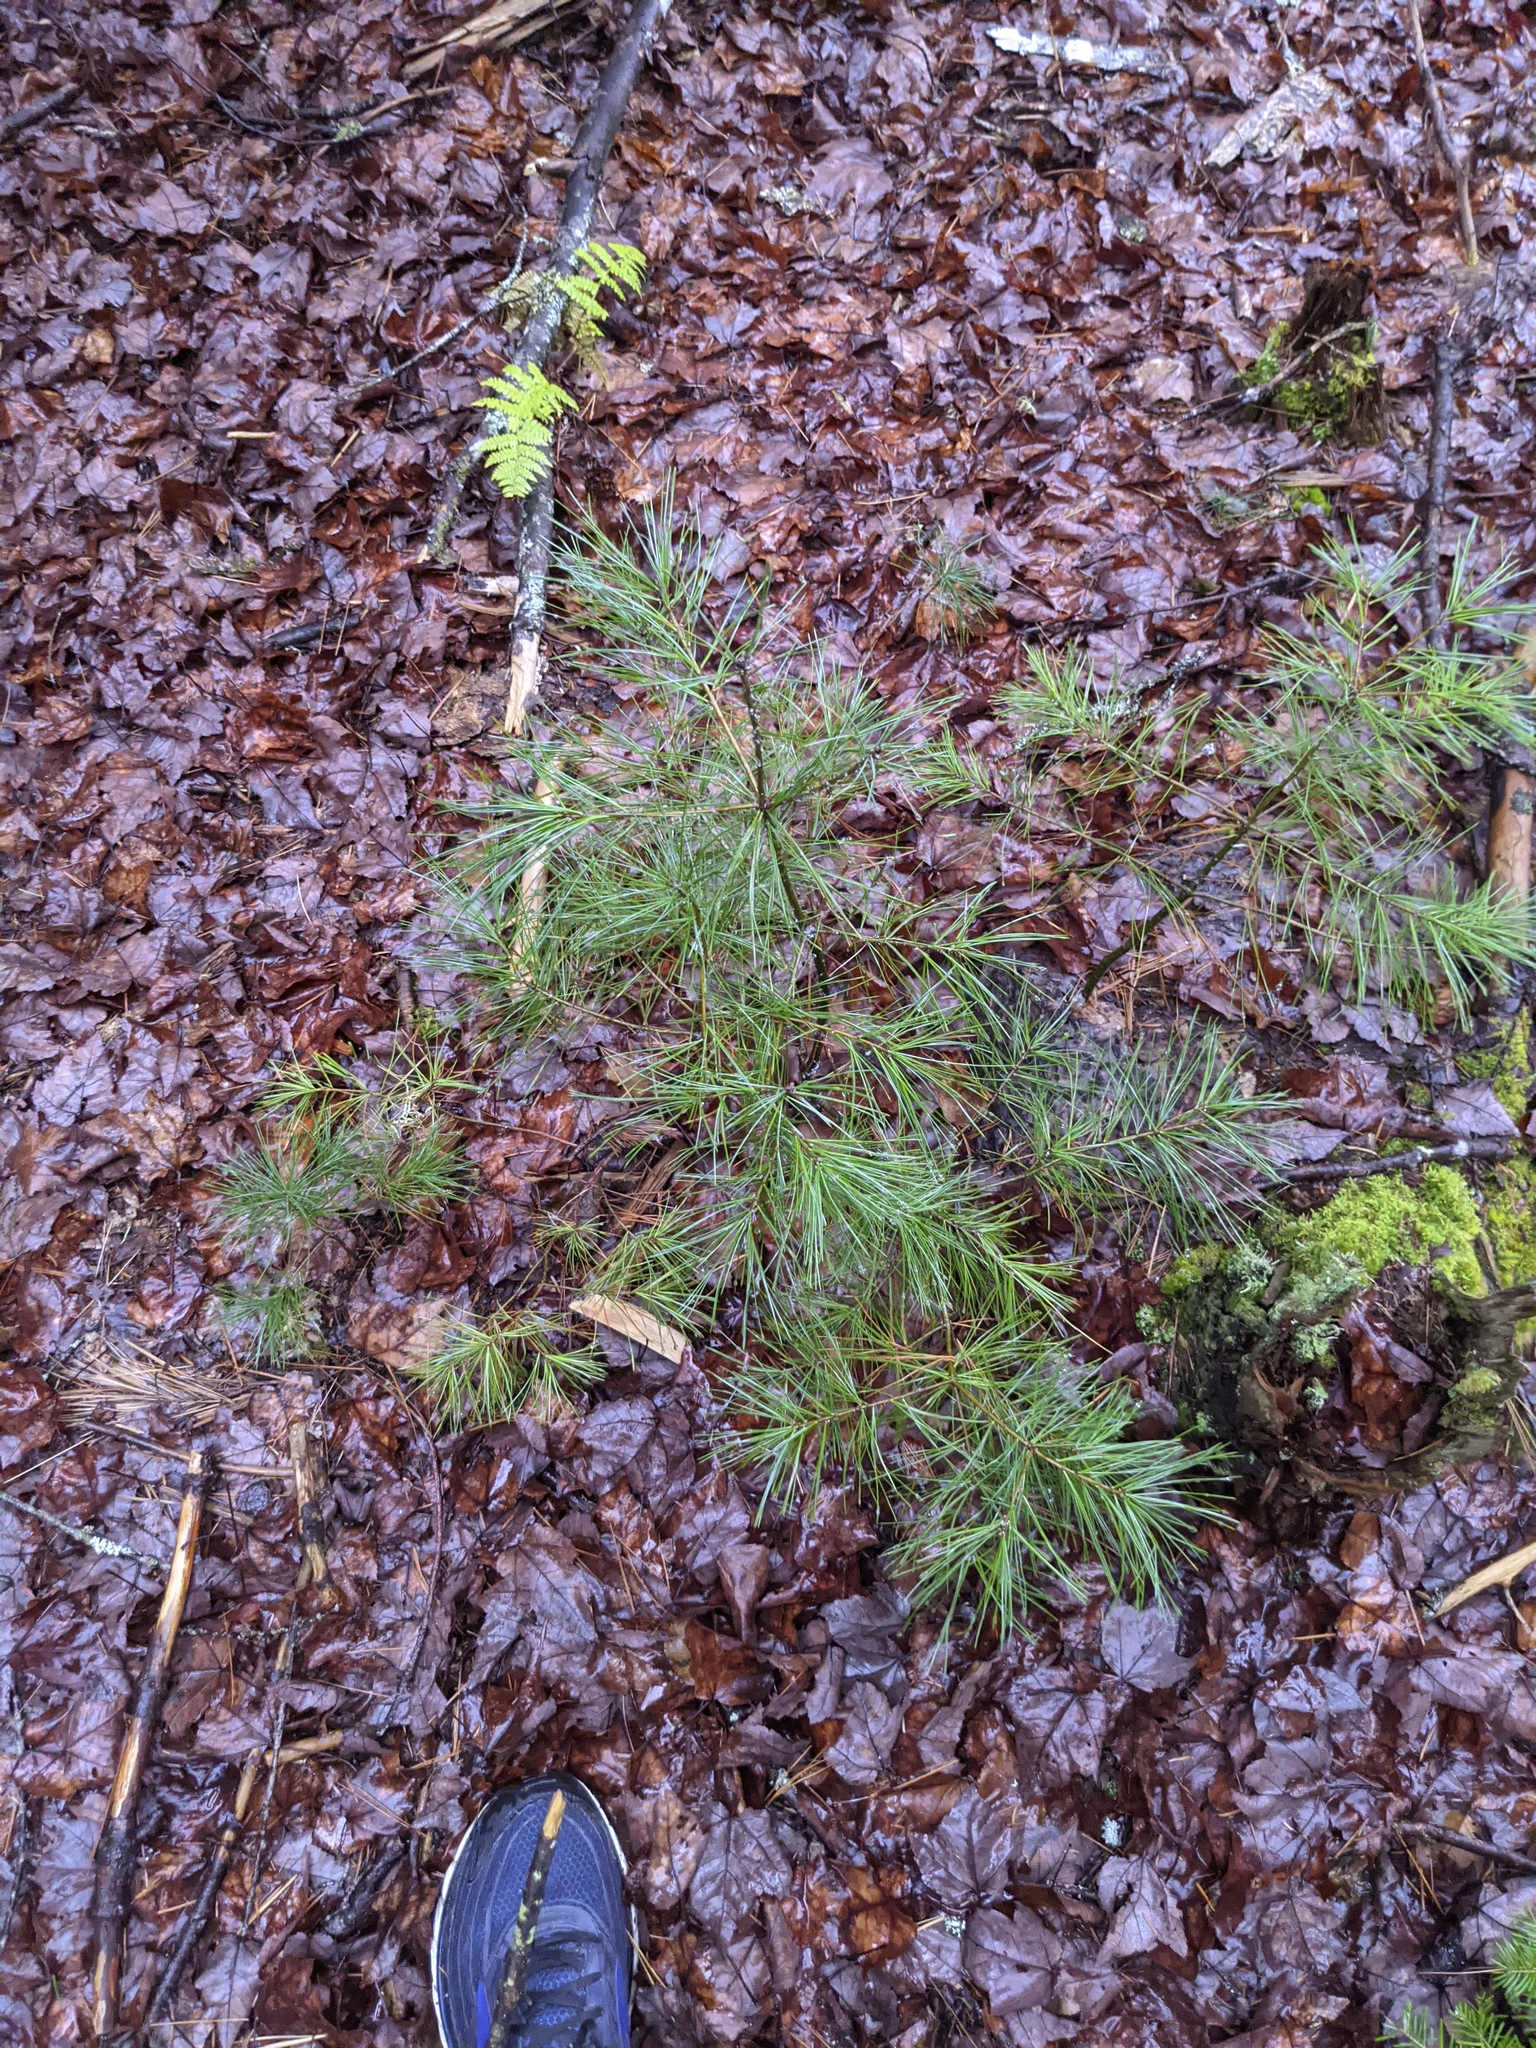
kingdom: Plantae
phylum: Tracheophyta
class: Pinopsida
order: Pinales
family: Pinaceae
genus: Pinus
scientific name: Pinus strobus
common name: Weymouth pine
